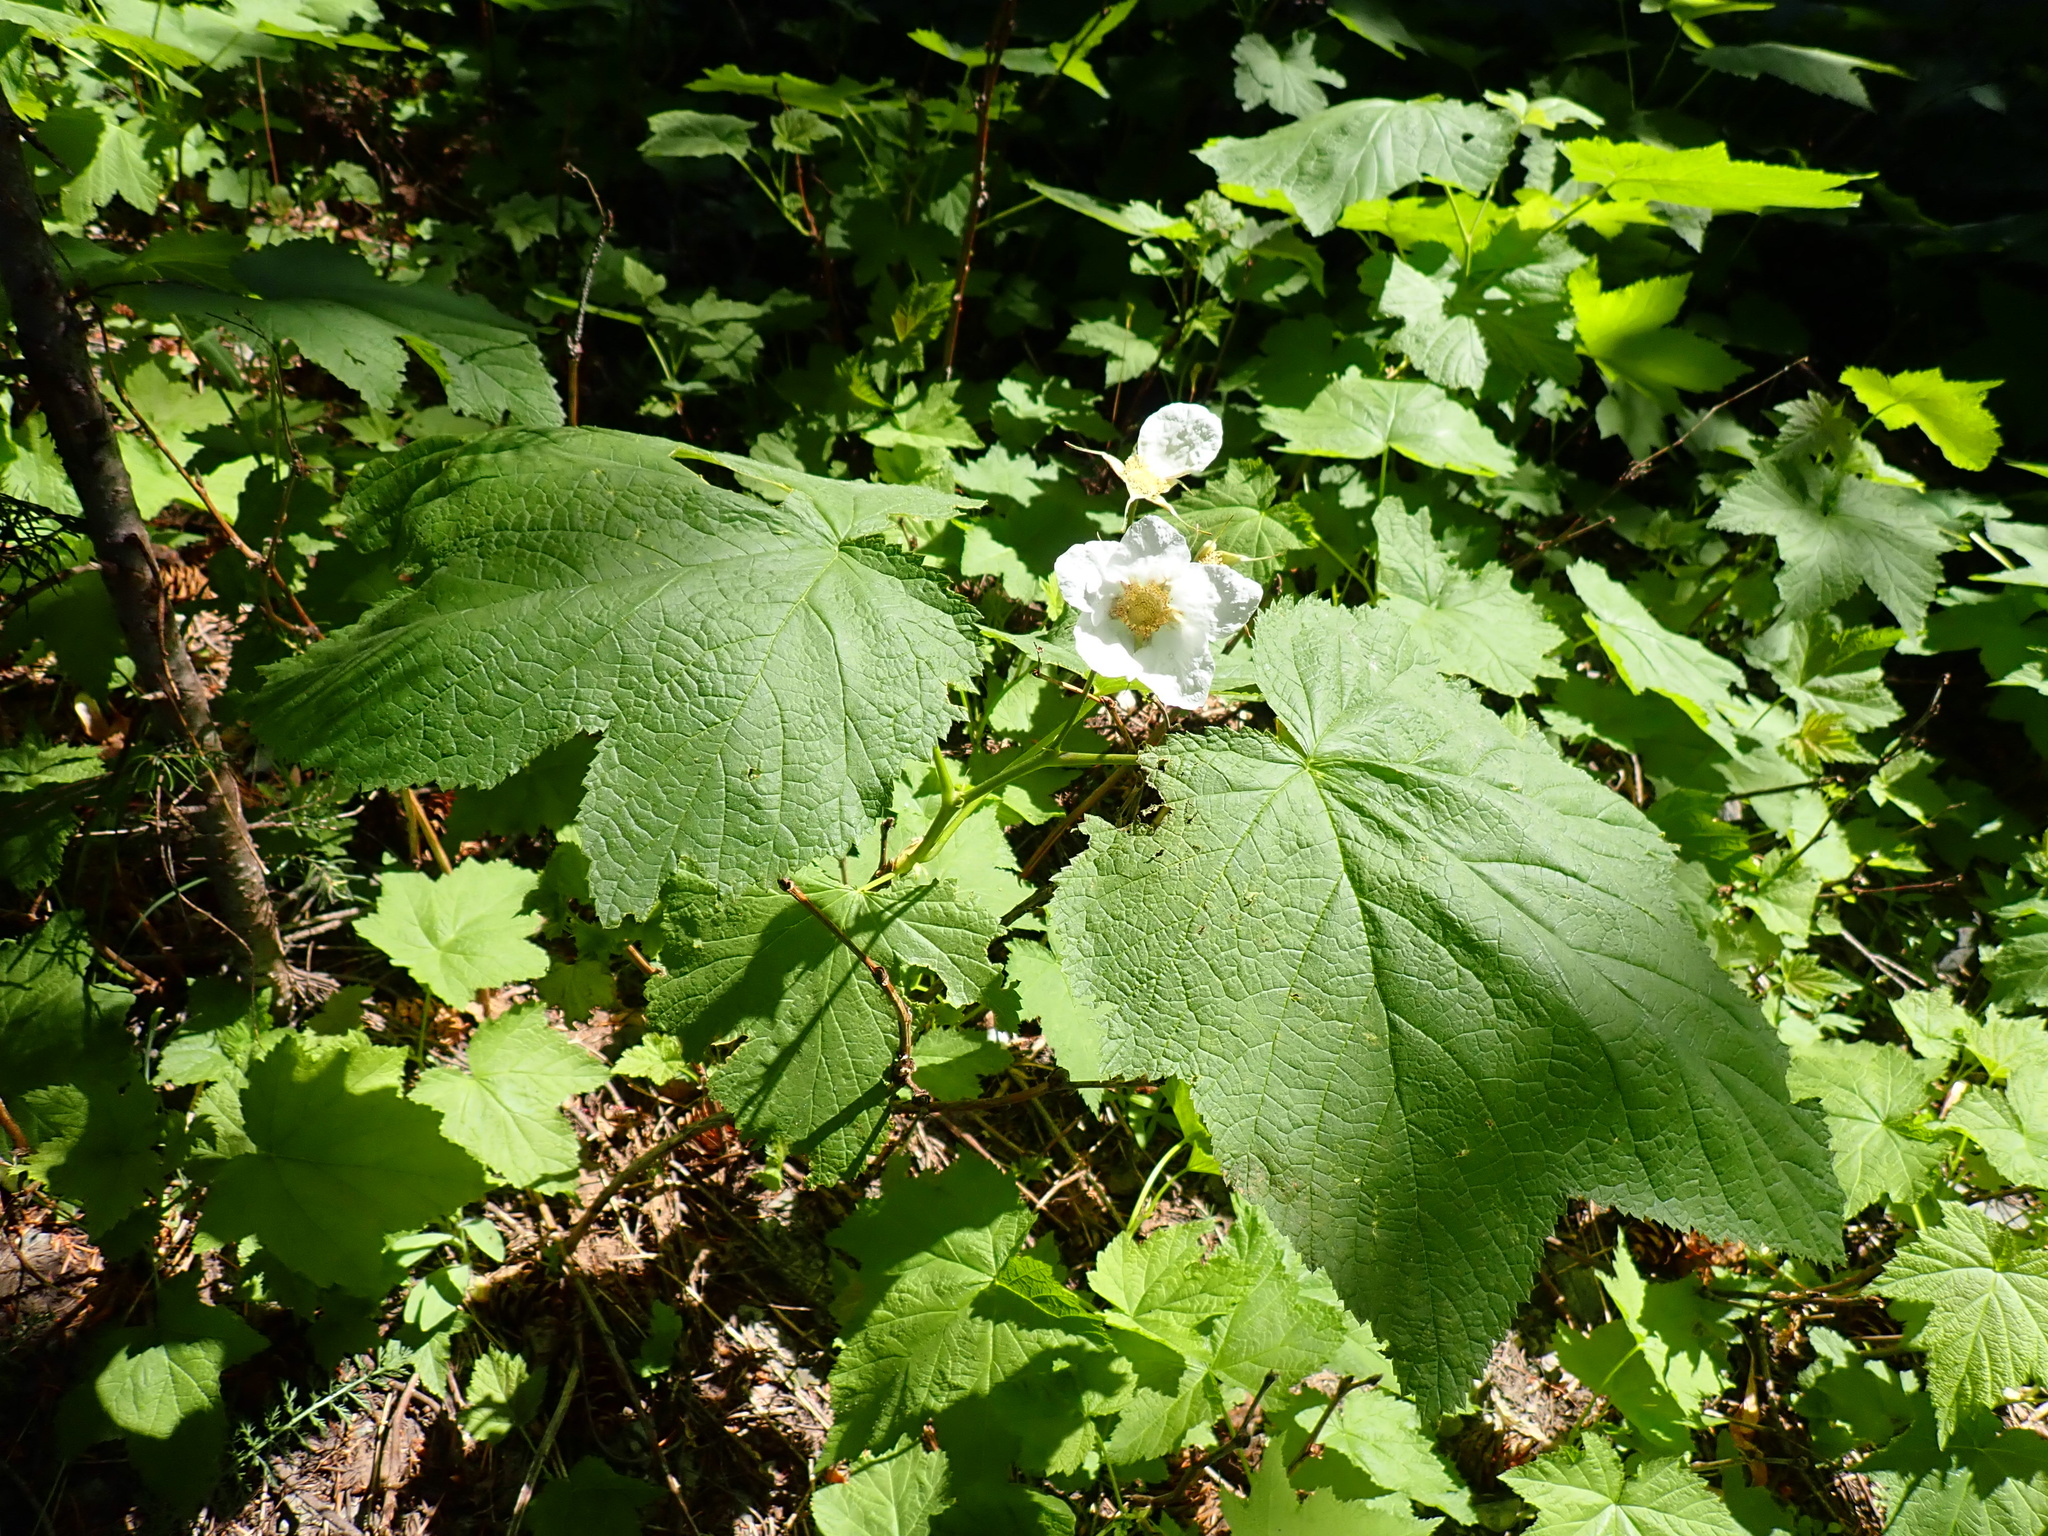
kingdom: Plantae
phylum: Tracheophyta
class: Magnoliopsida
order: Rosales
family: Rosaceae
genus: Rubus
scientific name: Rubus parviflorus
